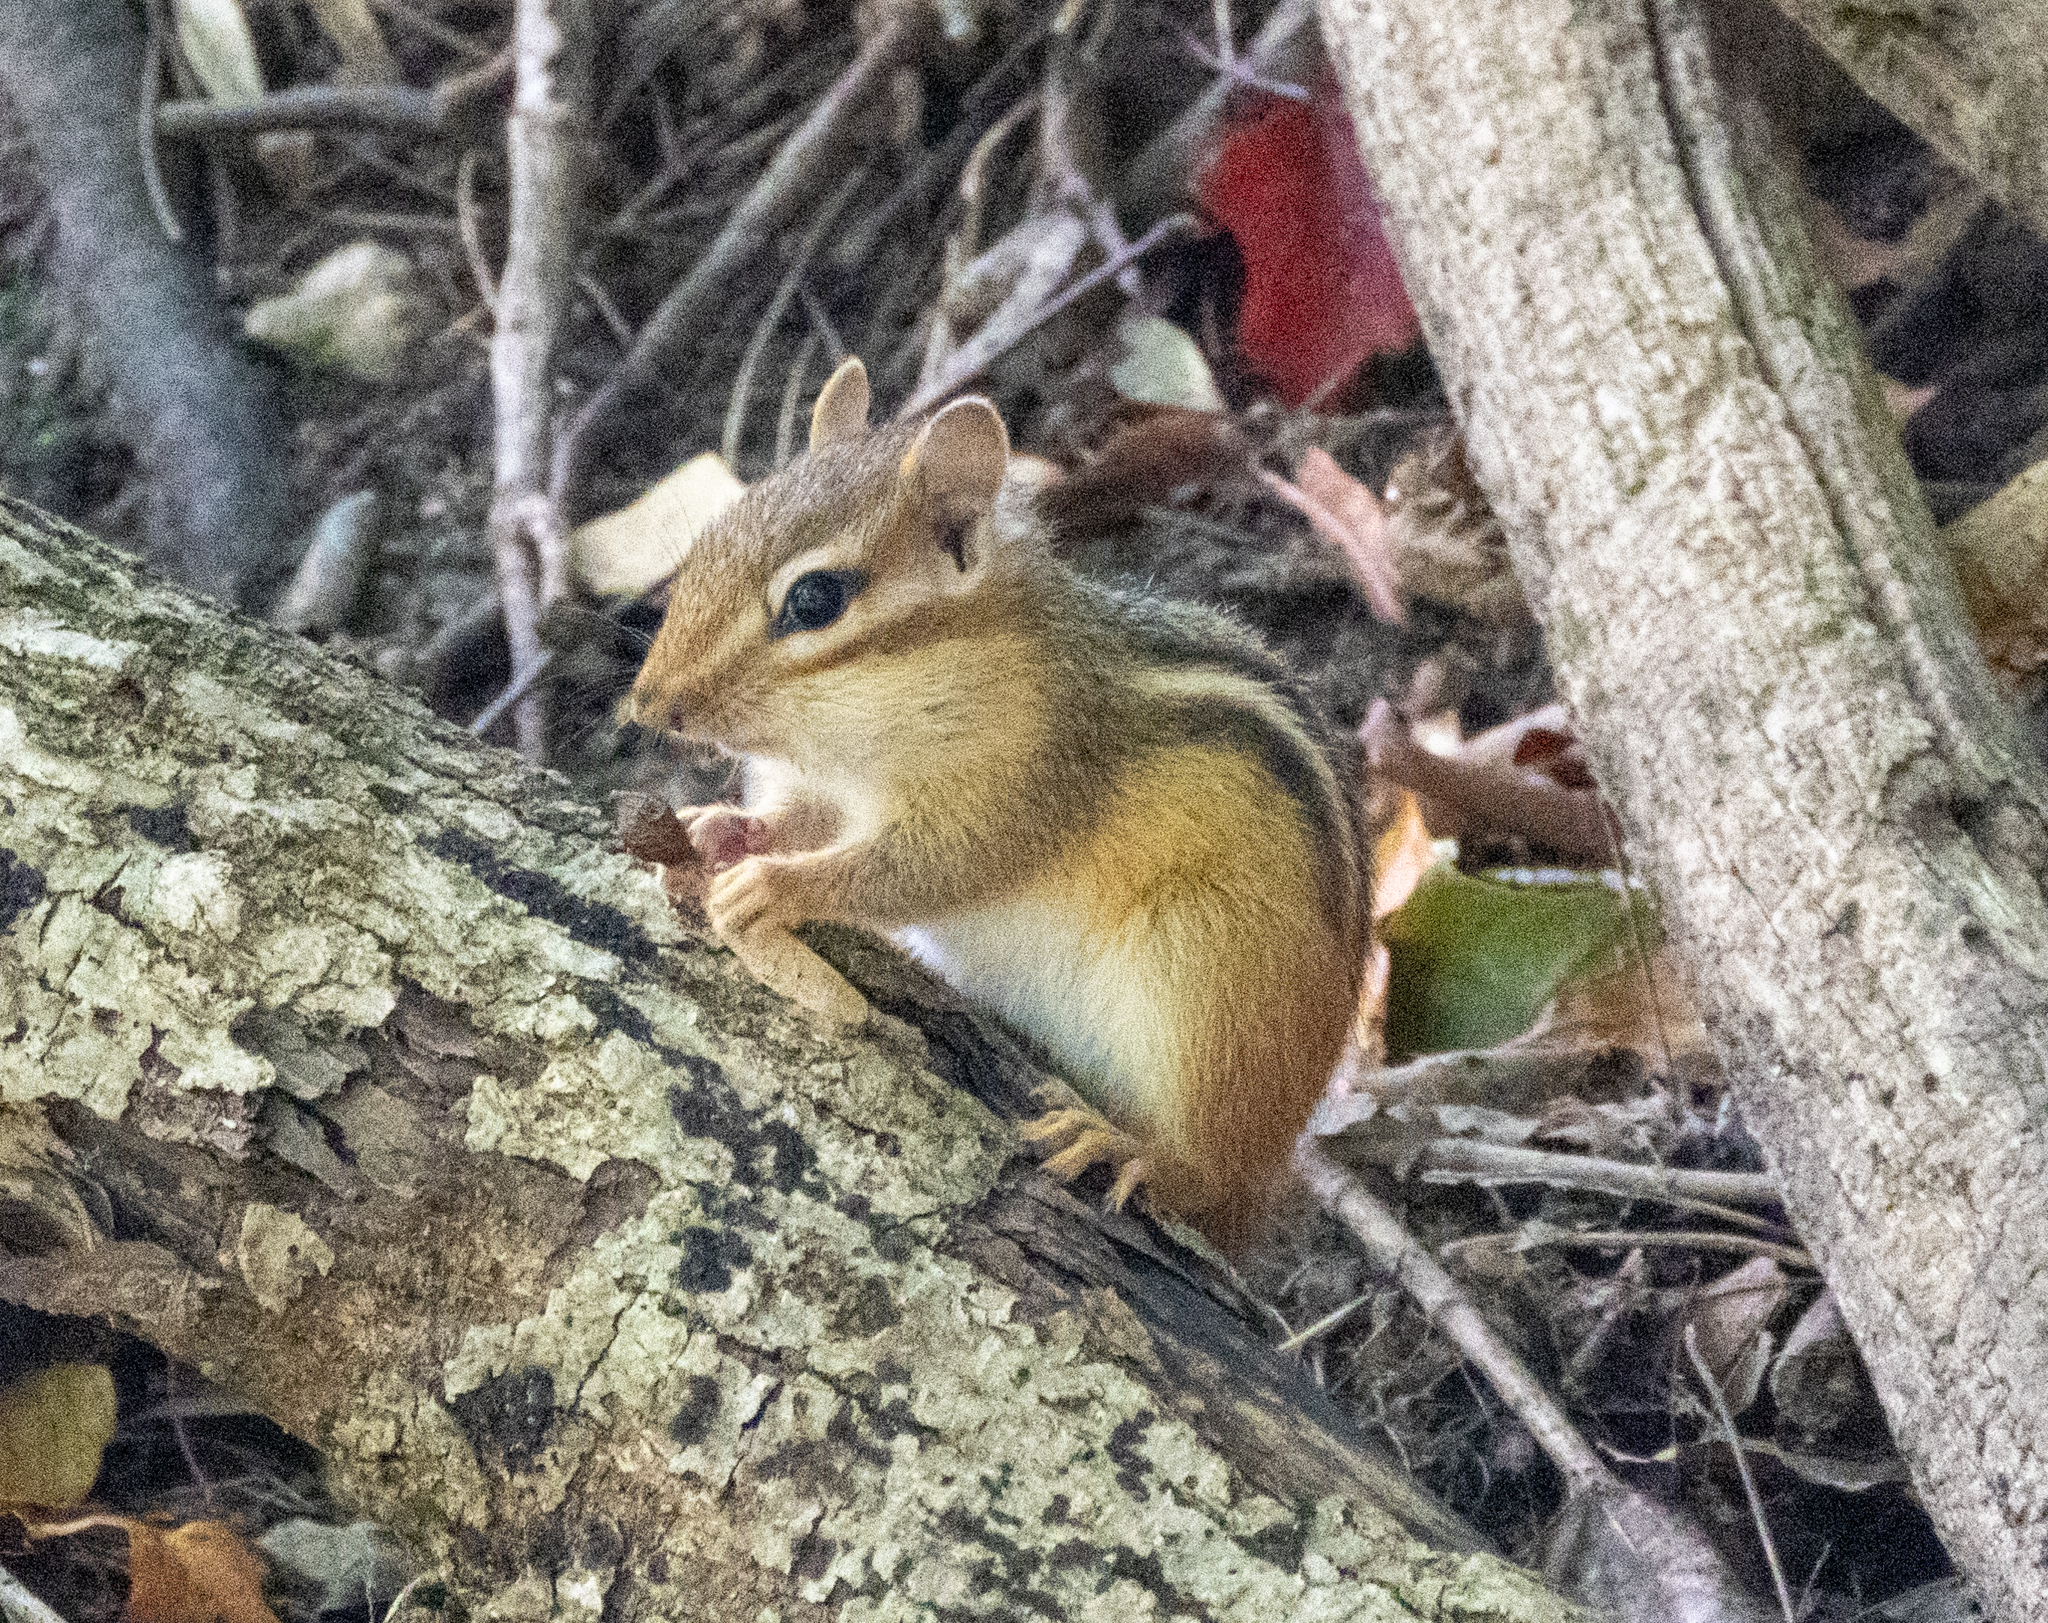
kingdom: Animalia
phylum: Chordata
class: Mammalia
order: Rodentia
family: Sciuridae
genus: Tamias
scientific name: Tamias striatus
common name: Eastern chipmunk
